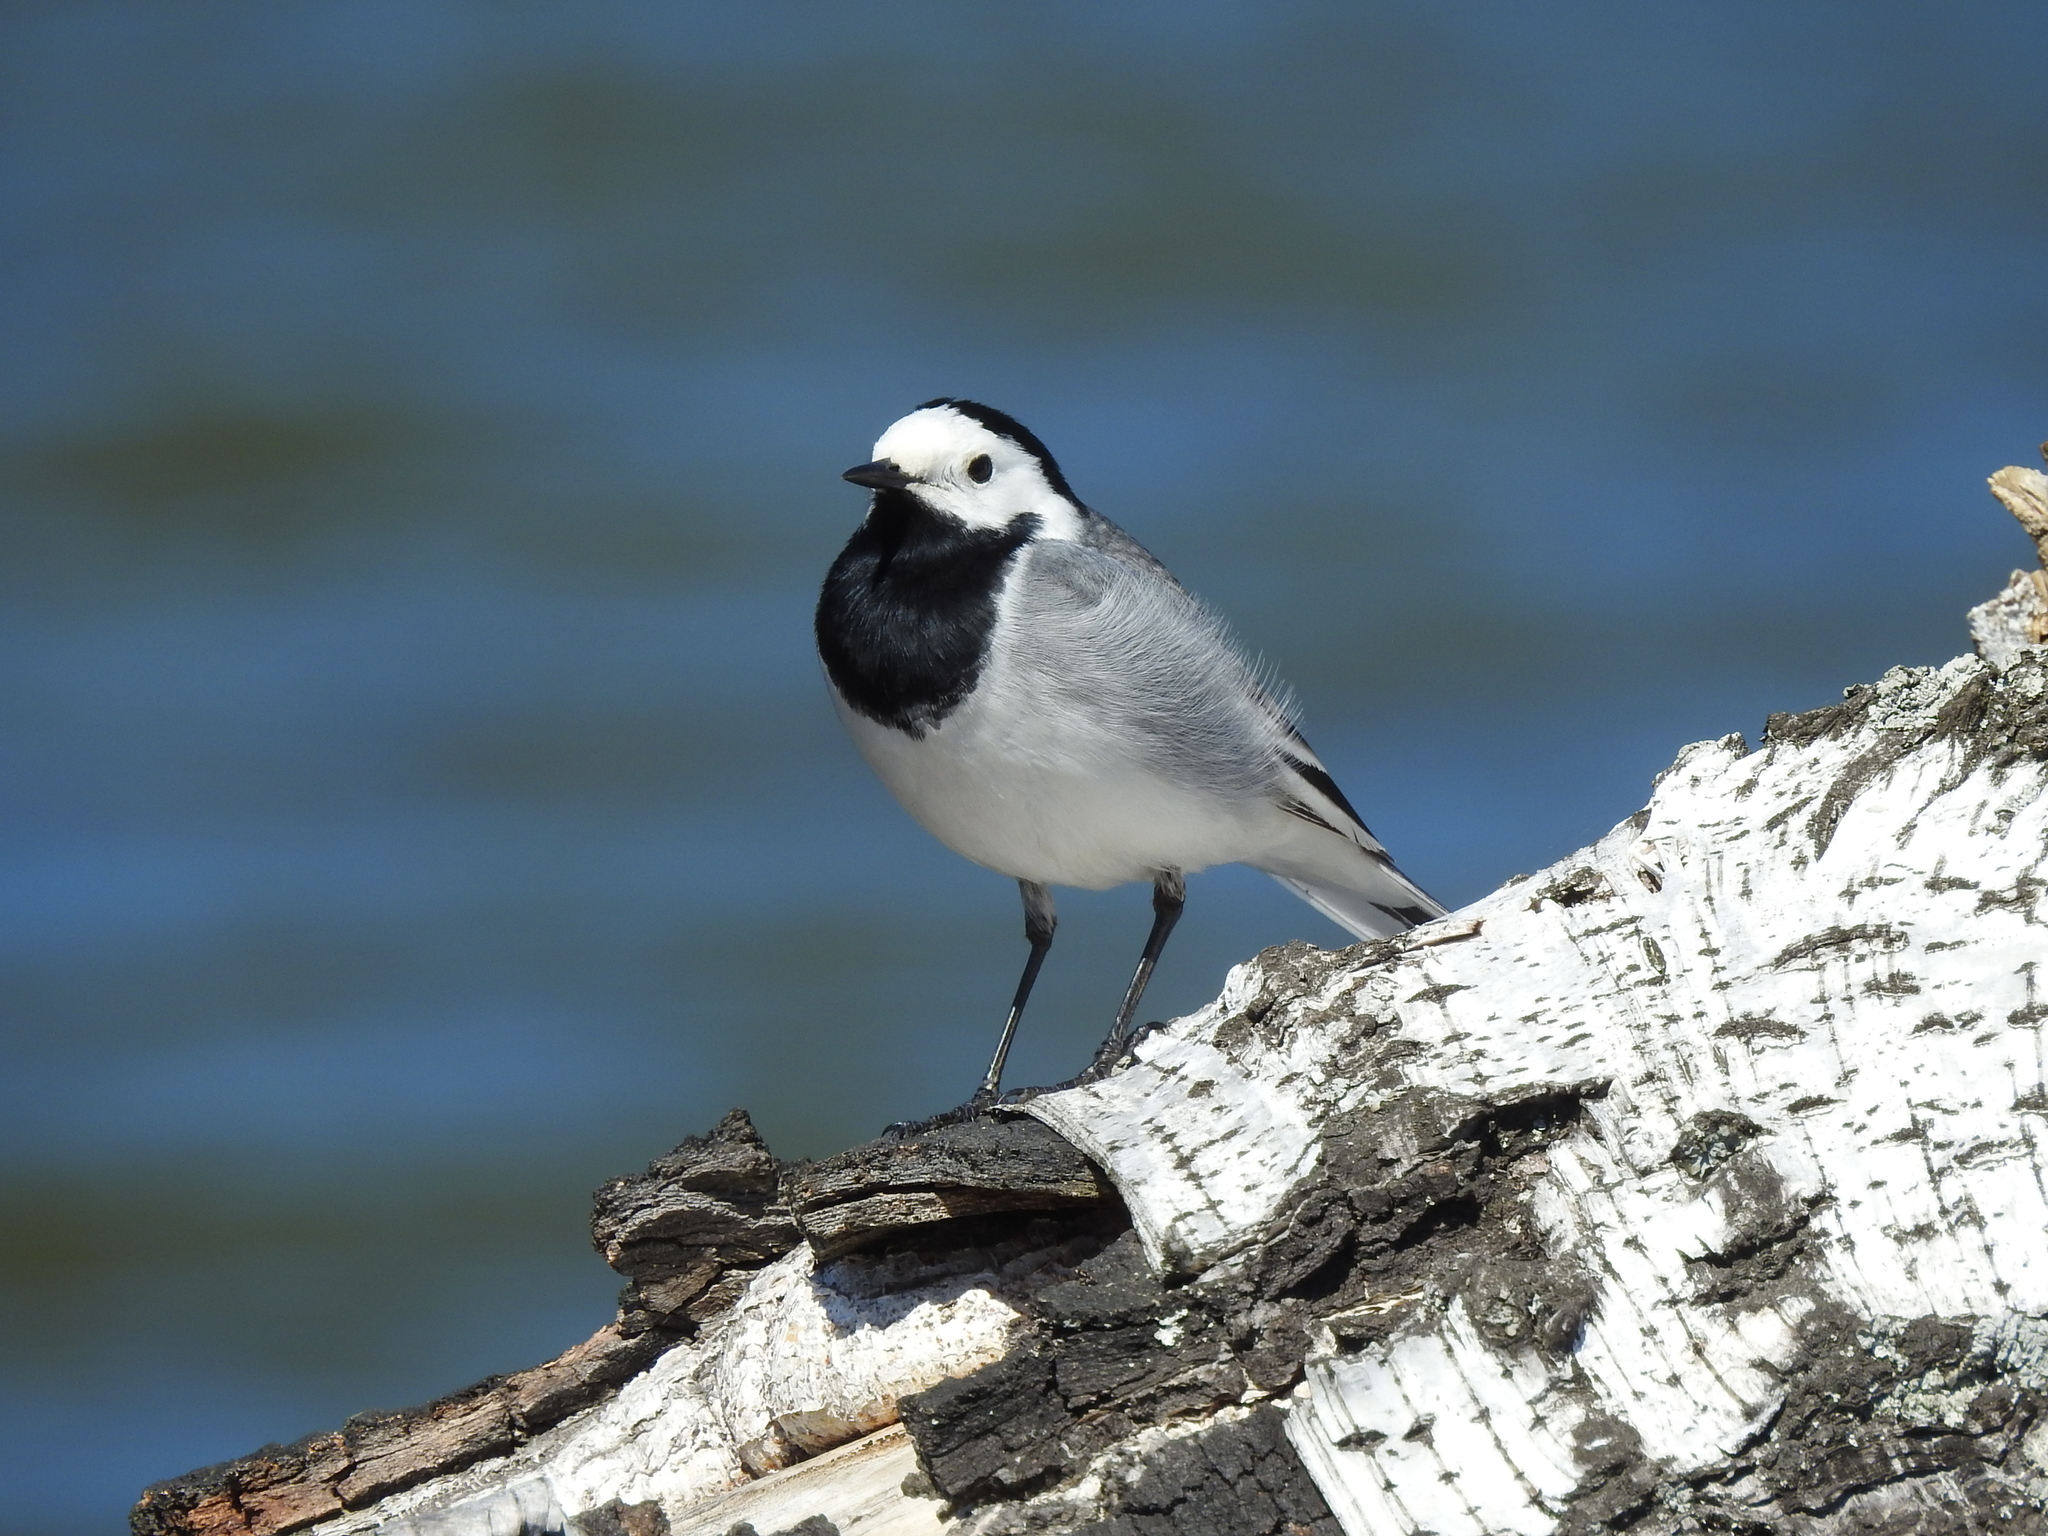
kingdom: Animalia
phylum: Chordata
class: Aves
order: Passeriformes
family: Motacillidae
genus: Motacilla
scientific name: Motacilla alba
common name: White wagtail
